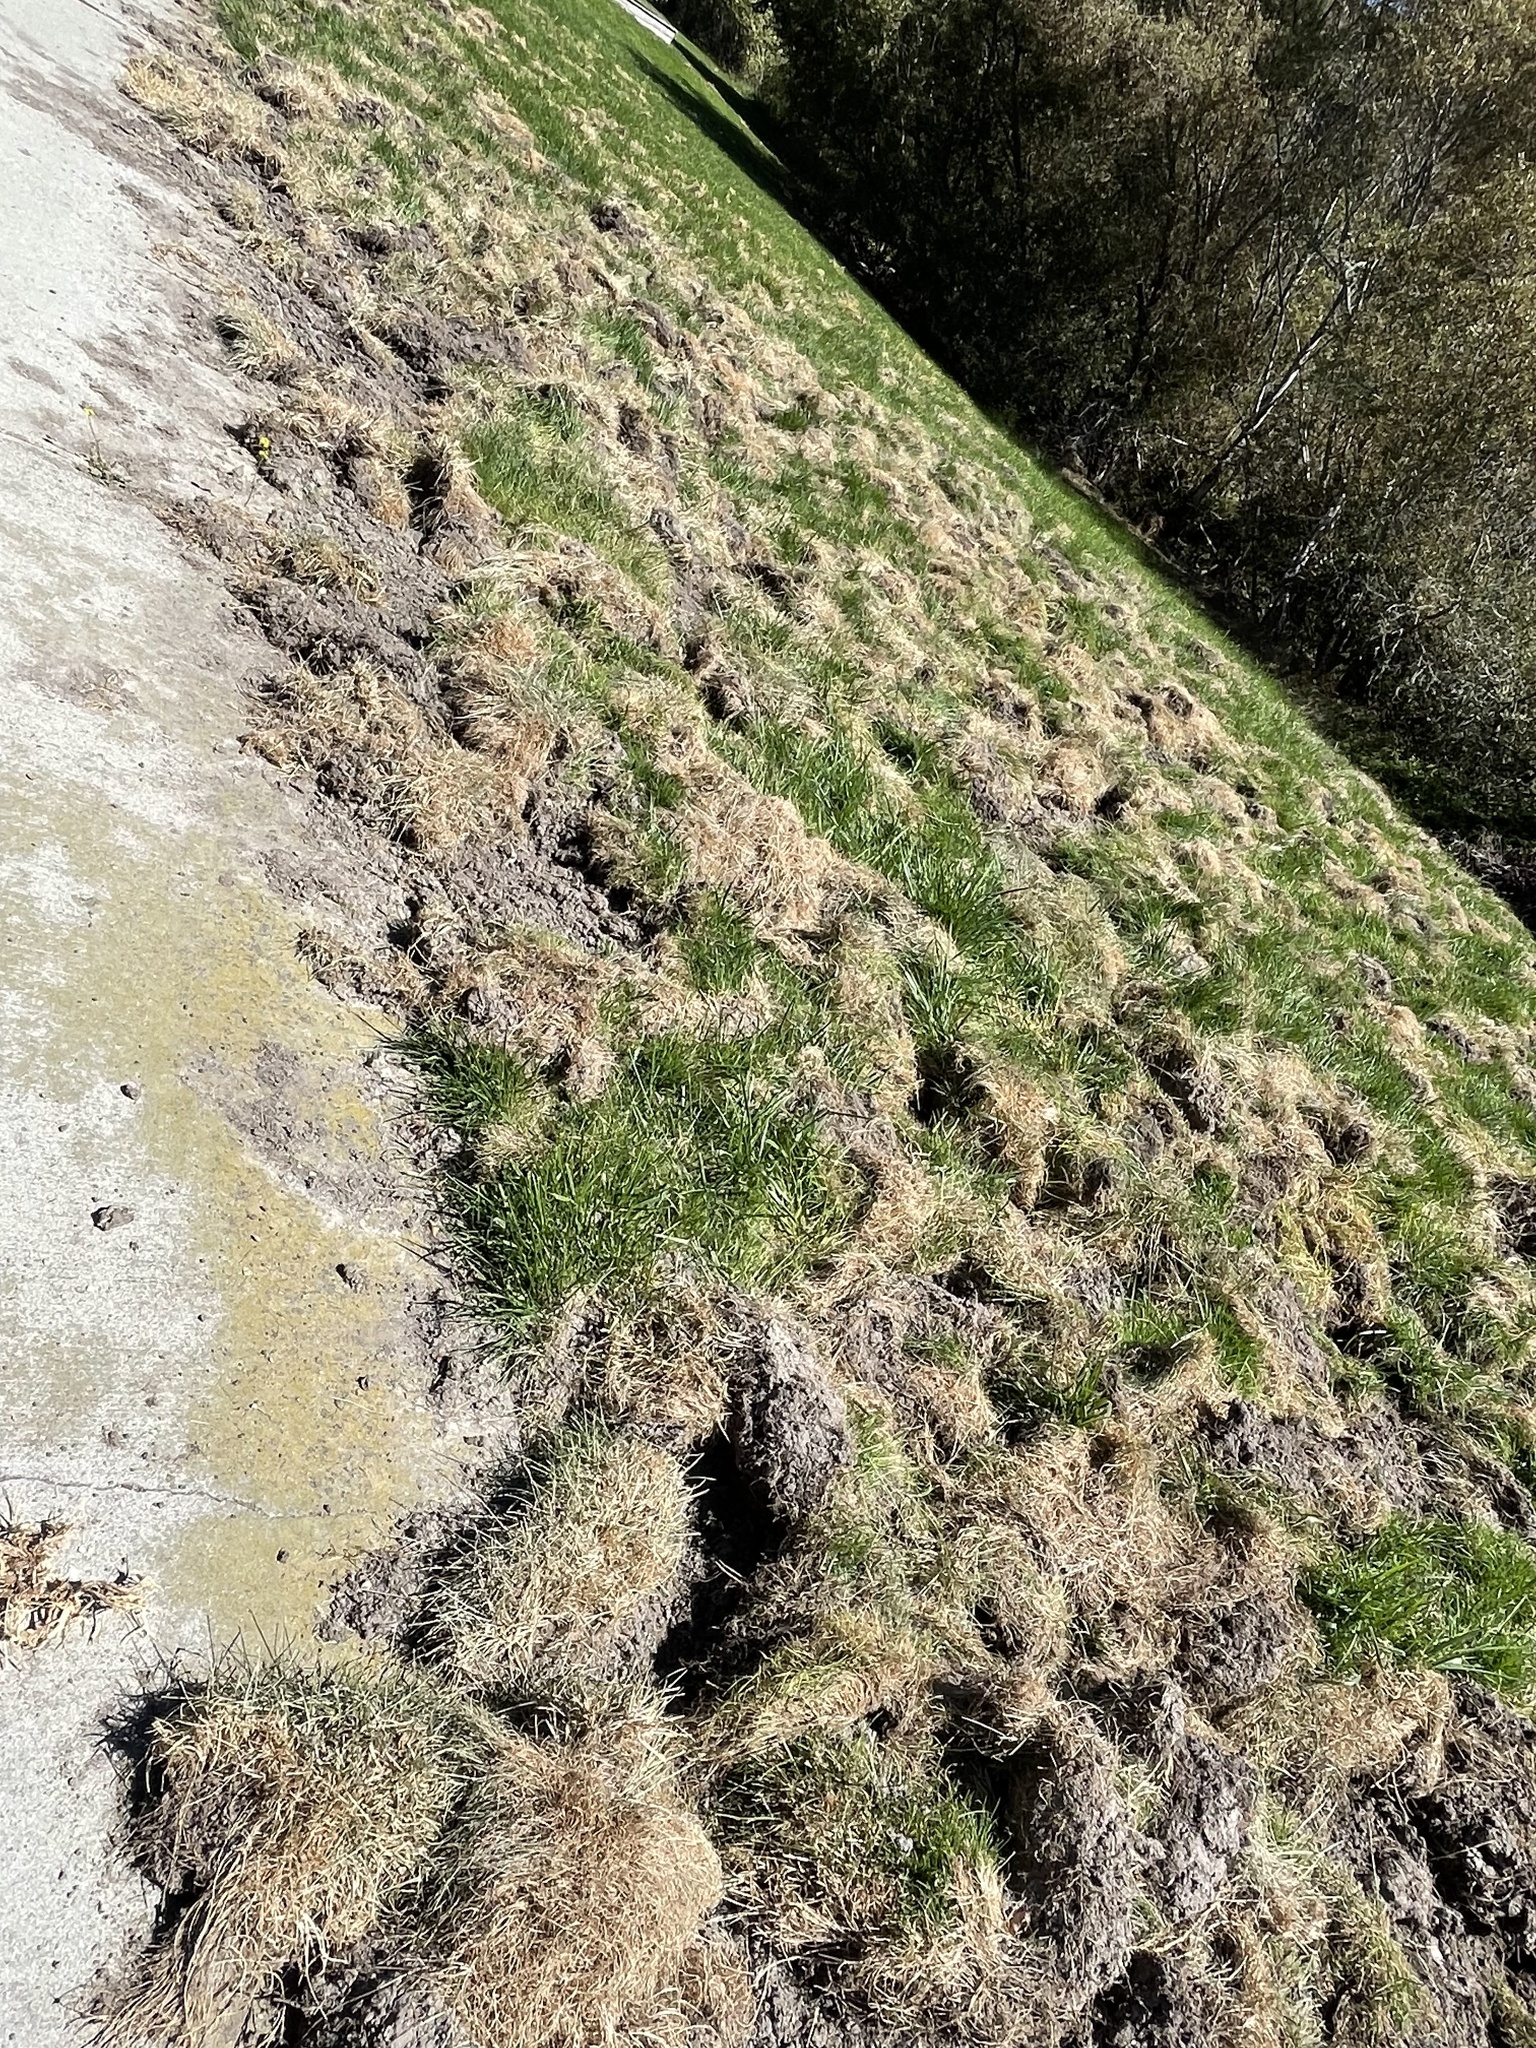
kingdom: Animalia
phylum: Chordata
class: Mammalia
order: Artiodactyla
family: Suidae
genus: Sus
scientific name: Sus scrofa
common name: Wild boar
